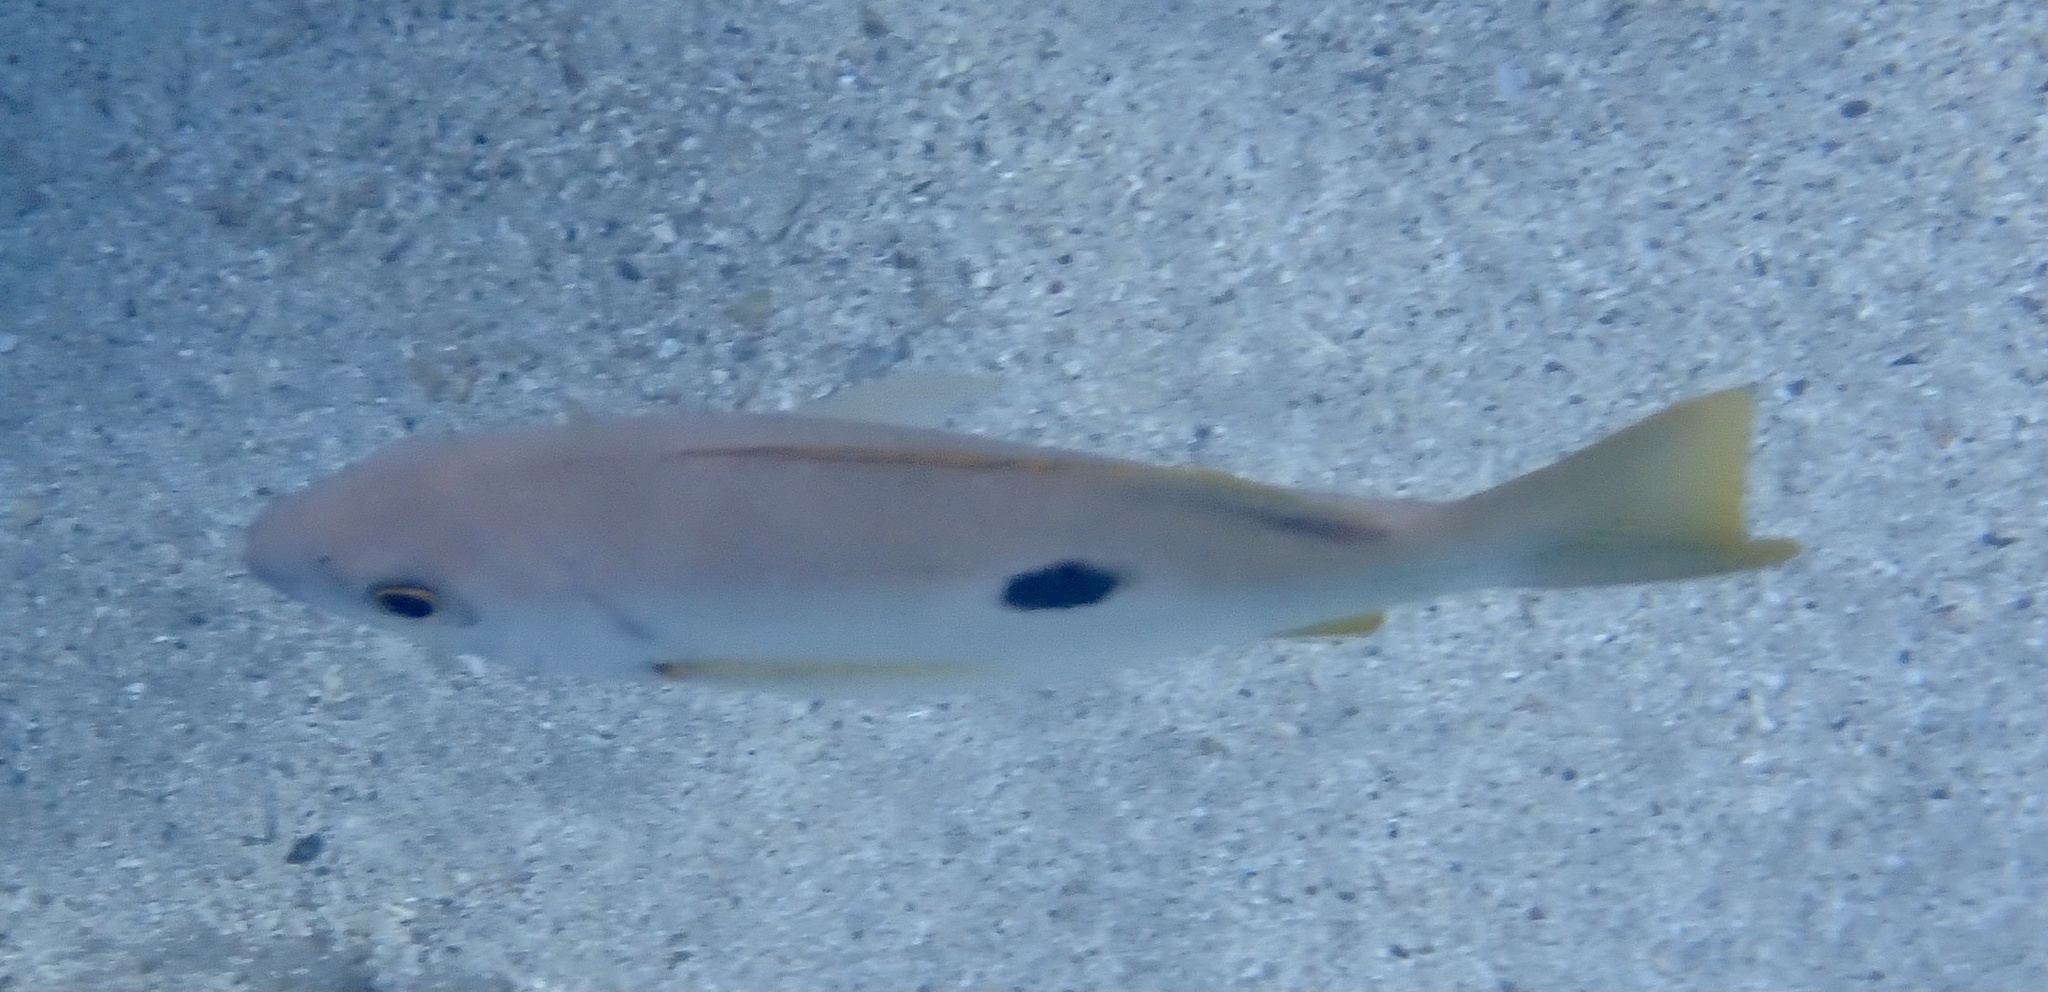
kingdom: Animalia
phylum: Chordata
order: Perciformes
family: Lutjanidae
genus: Lutjanus
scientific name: Lutjanus ehrenbergii
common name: Blackspot snapper
